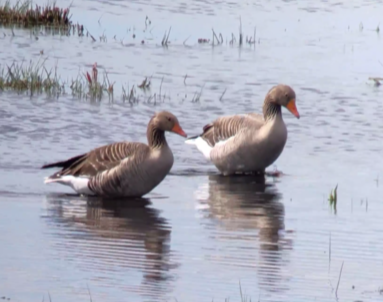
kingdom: Animalia
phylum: Chordata
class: Aves
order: Anseriformes
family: Anatidae
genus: Anser
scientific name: Anser anser
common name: Greylag goose
